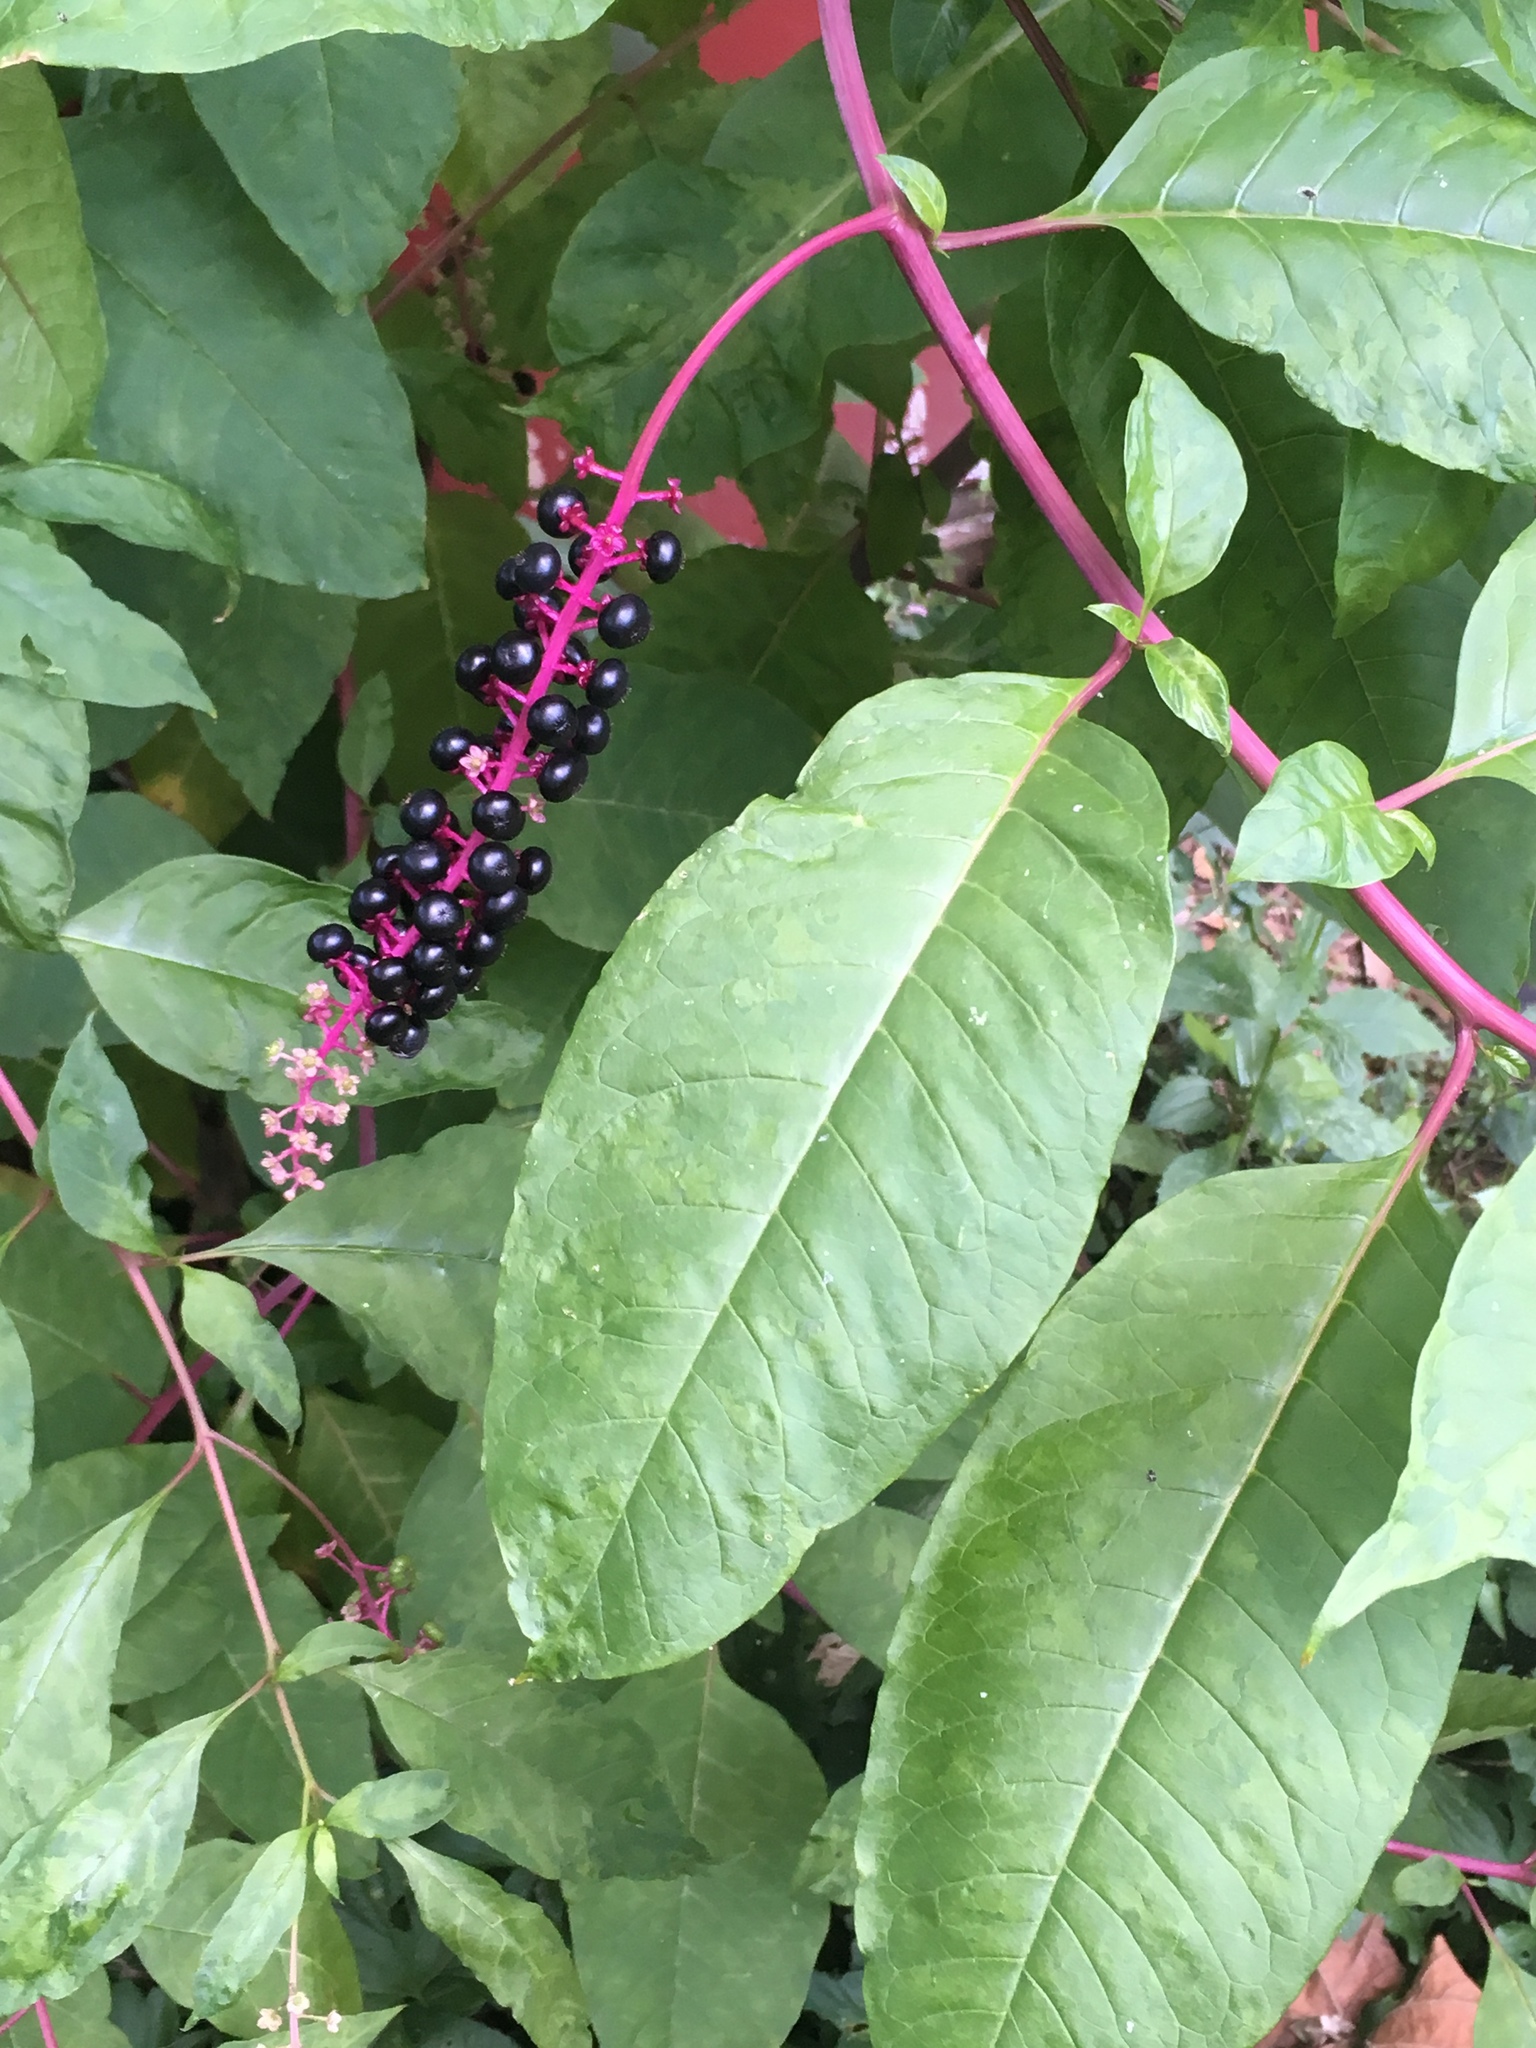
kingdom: Plantae
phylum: Tracheophyta
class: Magnoliopsida
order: Caryophyllales
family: Phytolaccaceae
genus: Phytolacca
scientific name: Phytolacca americana
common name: American pokeweed
